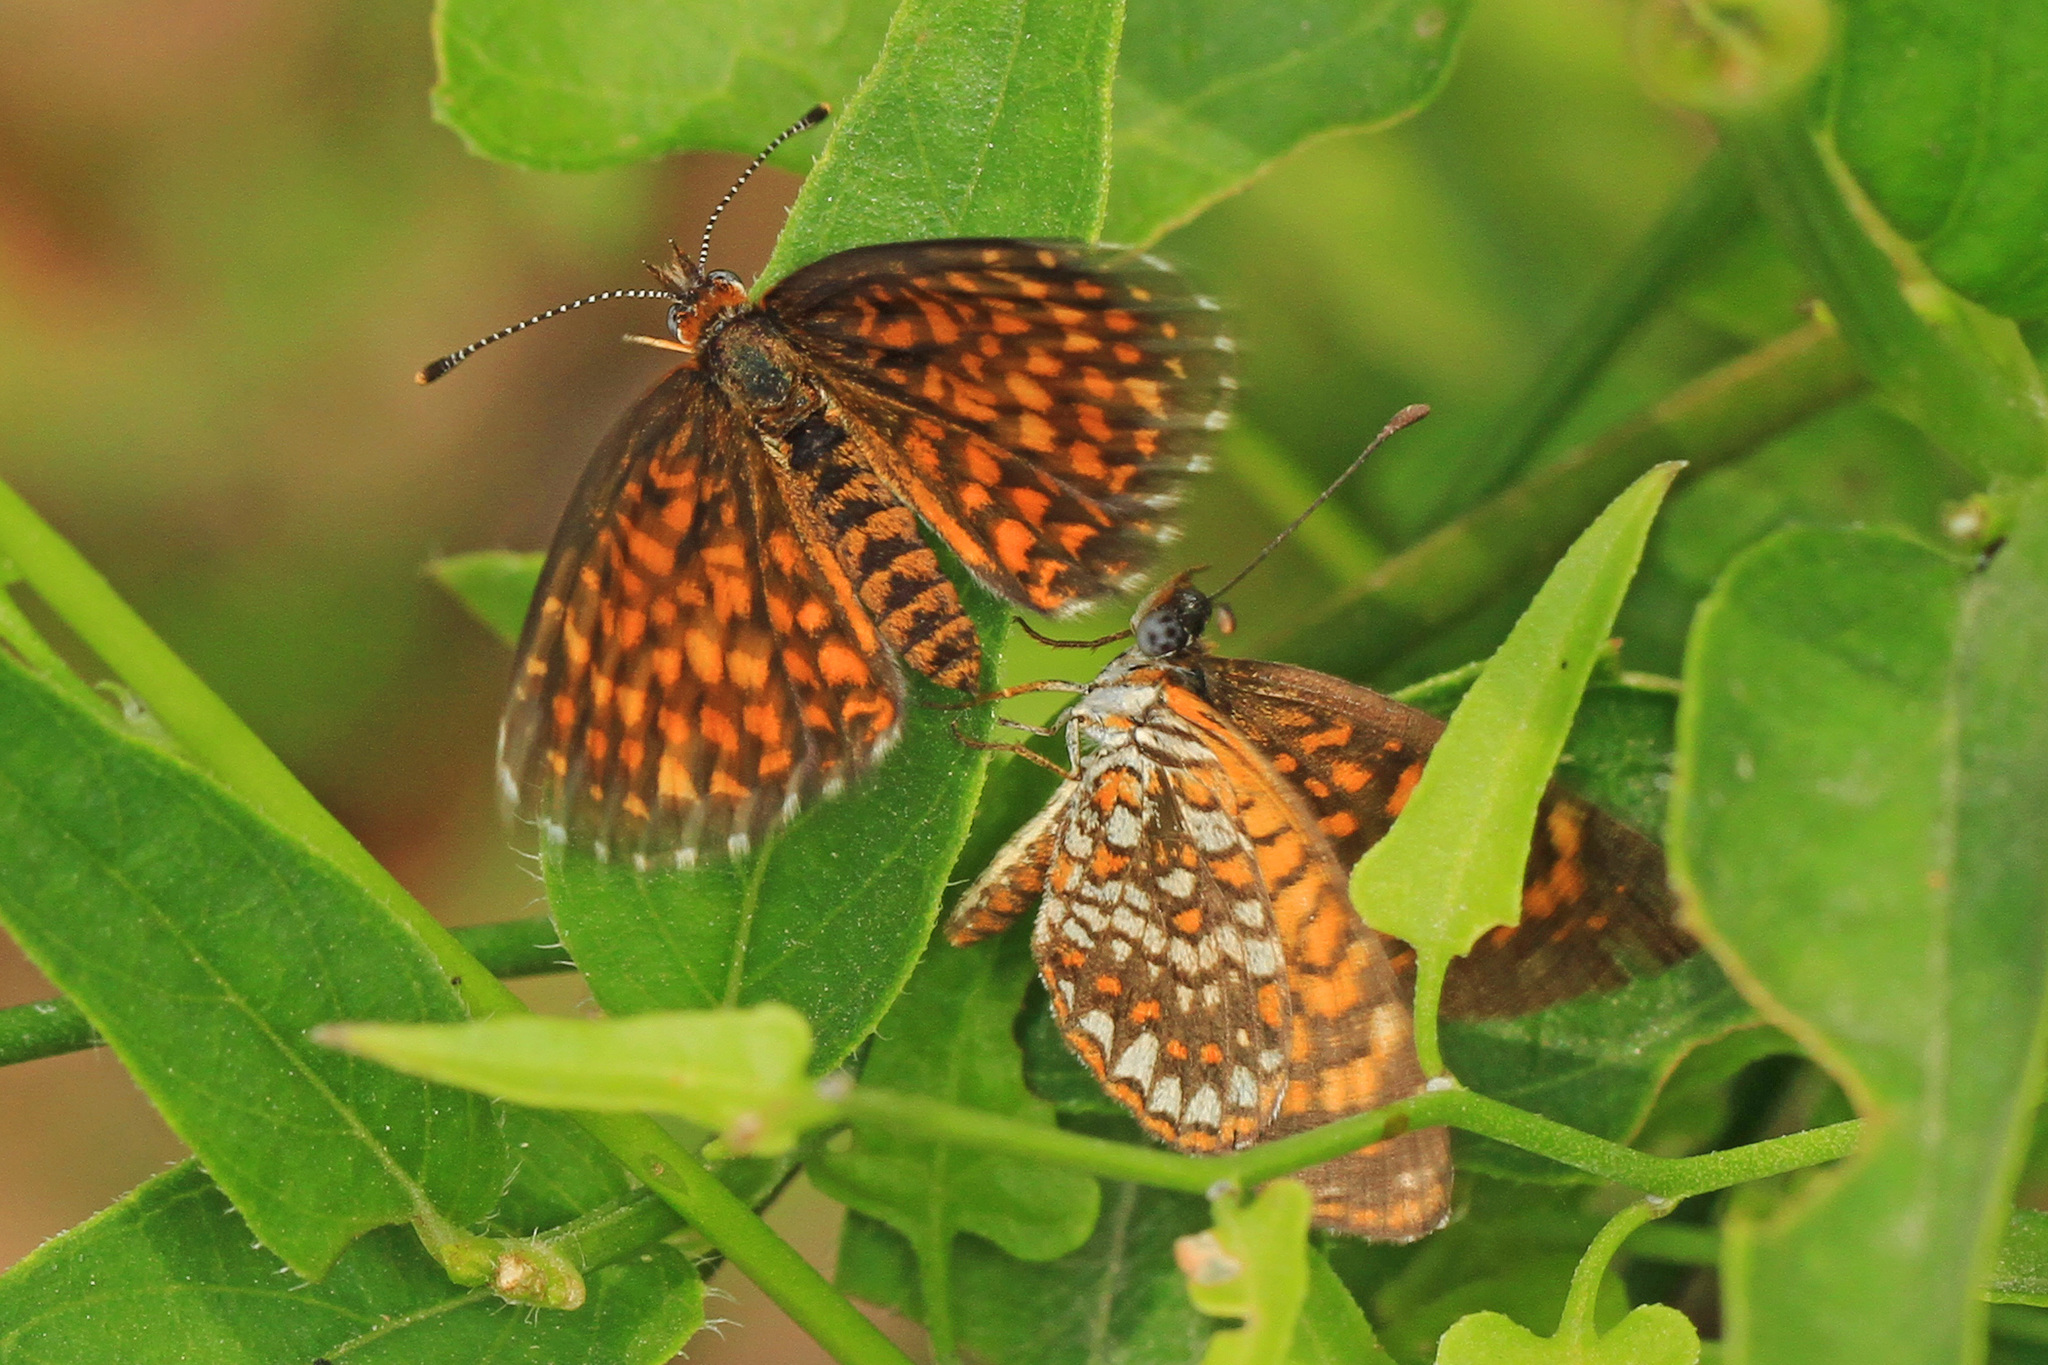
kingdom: Animalia
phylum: Arthropoda
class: Insecta
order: Lepidoptera
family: Nymphalidae
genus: Texola
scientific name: Texola elada
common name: Elada checkerspot
